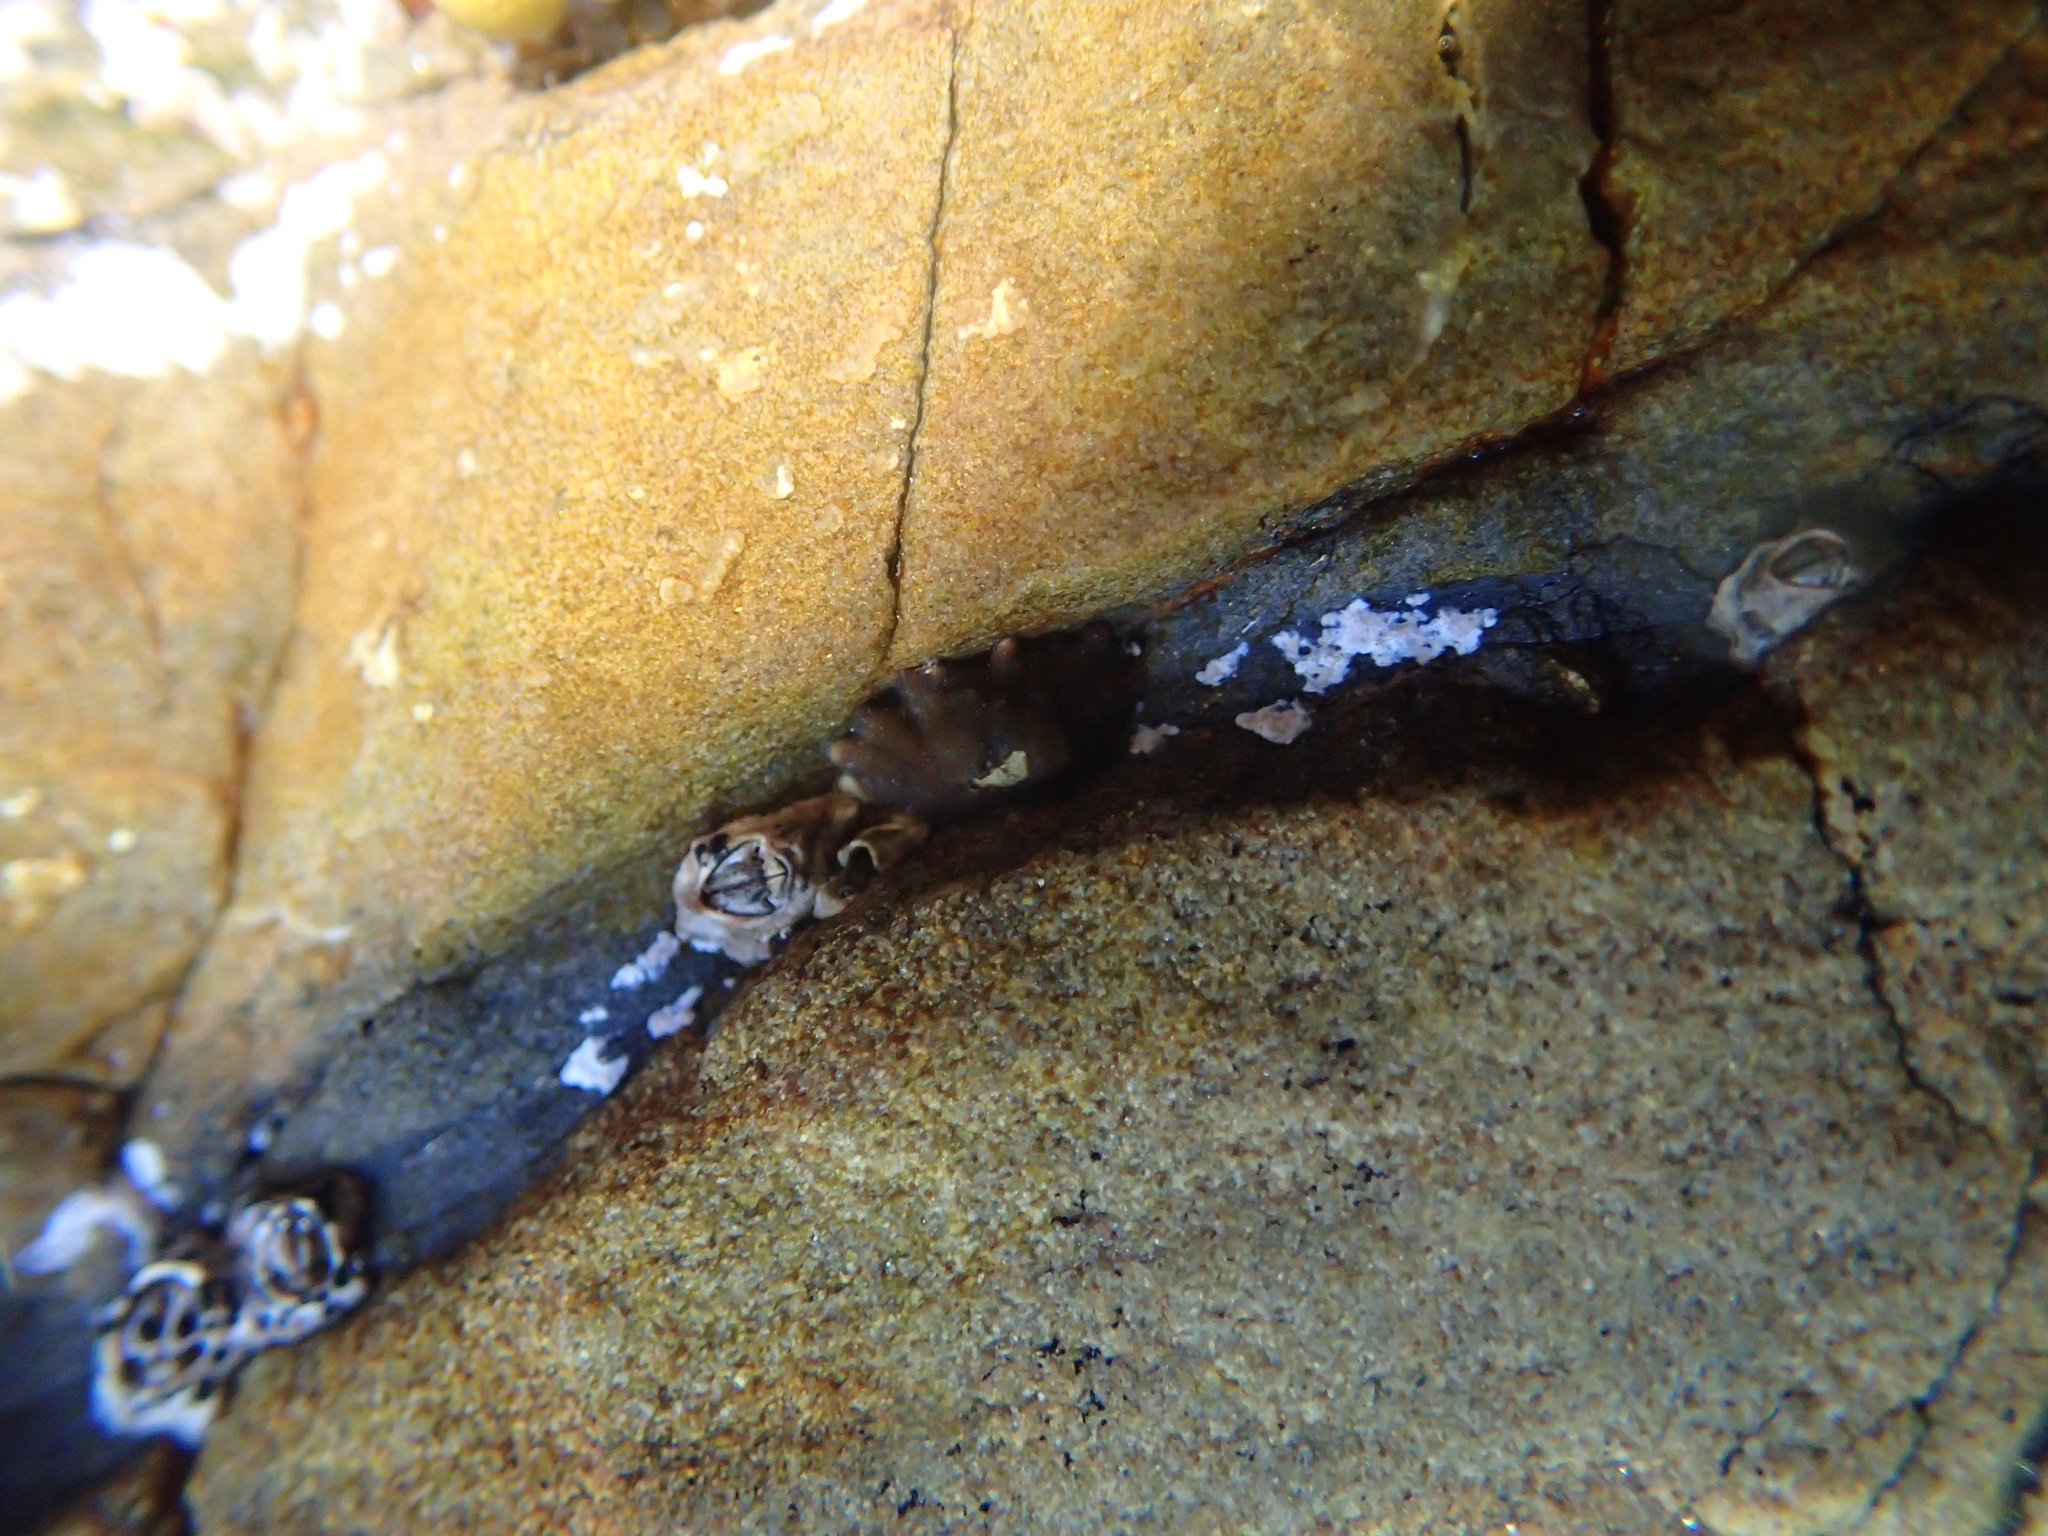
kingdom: Animalia
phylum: Arthropoda
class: Maxillopoda
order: Sessilia
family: Chthamalidae
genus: Chamaesipho
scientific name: Chamaesipho columna
